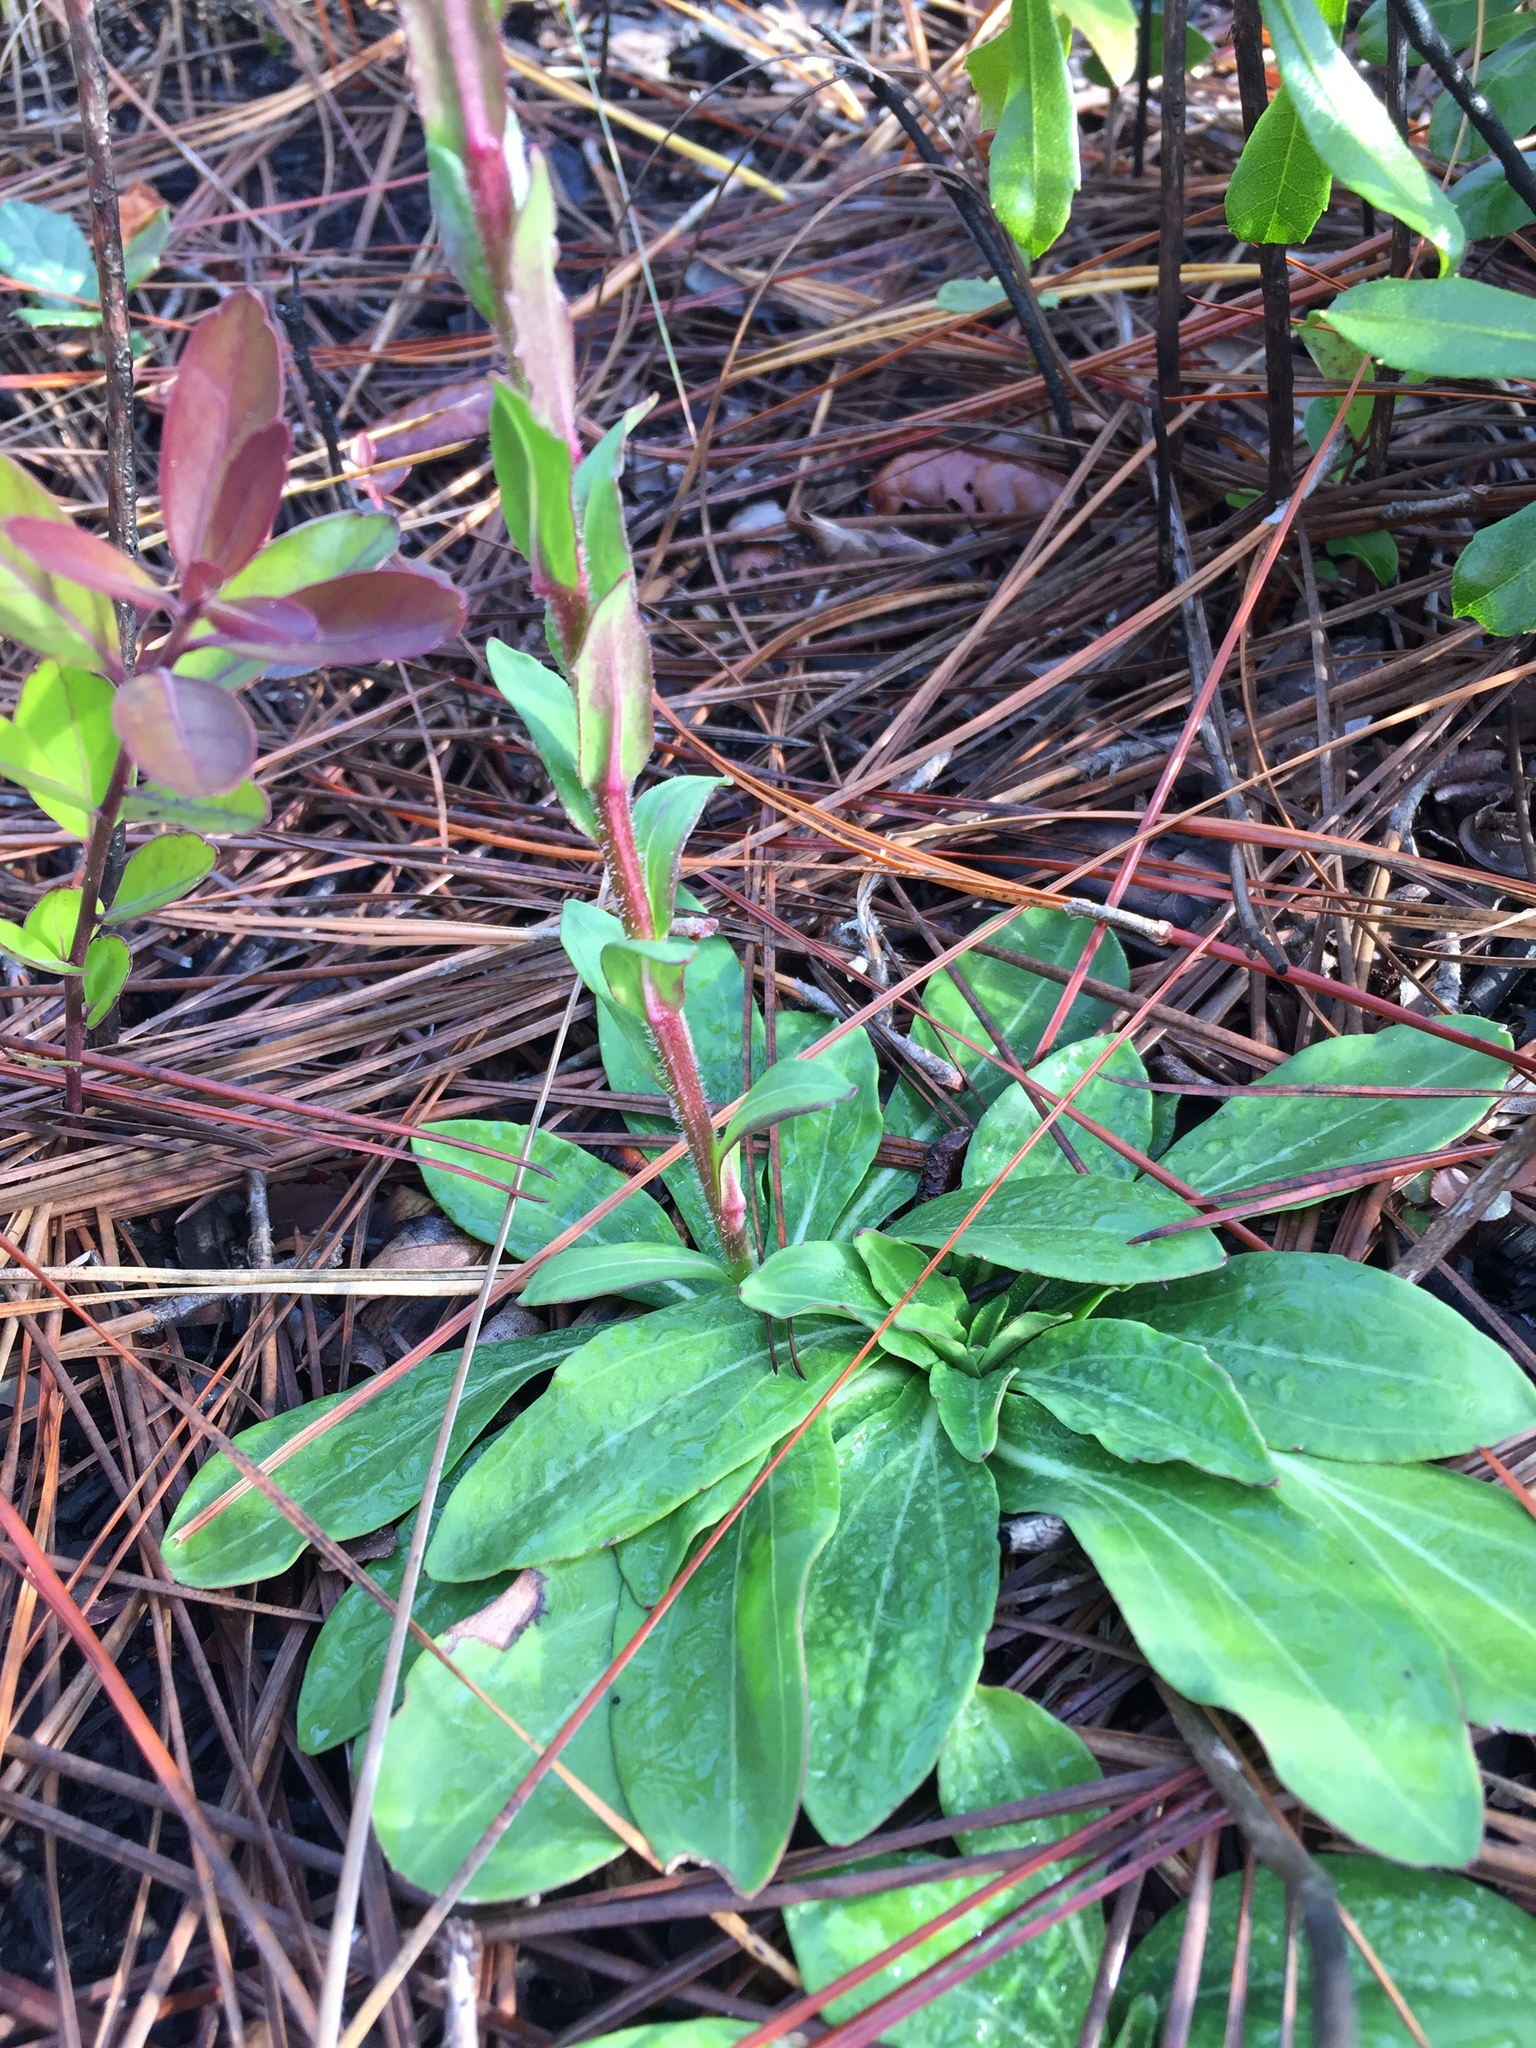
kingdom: Plantae
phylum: Tracheophyta
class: Magnoliopsida
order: Asterales
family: Asteraceae
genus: Carphephorus
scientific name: Carphephorus odoratissimus
